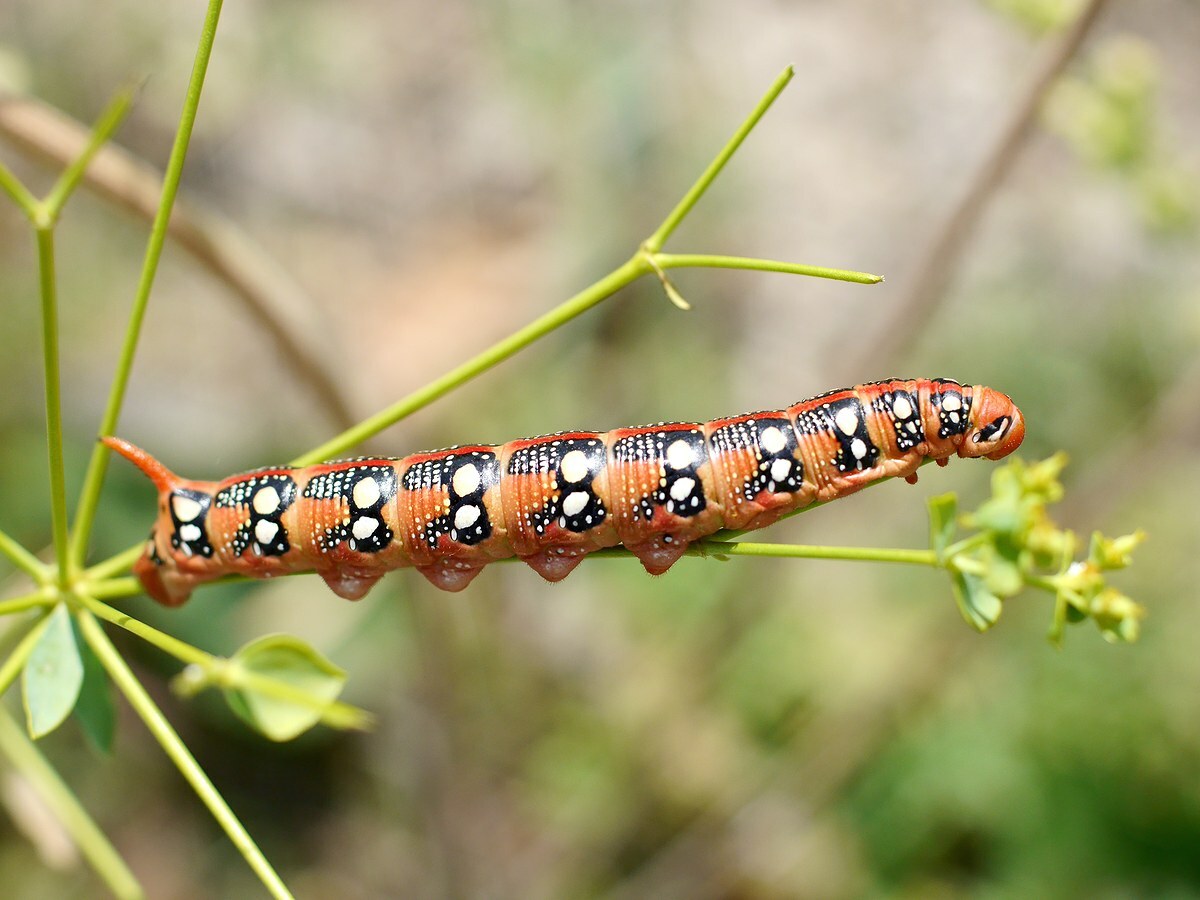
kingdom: Animalia
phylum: Arthropoda
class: Insecta
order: Lepidoptera
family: Sphingidae
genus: Hyles
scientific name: Hyles euphorbiae
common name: Spurge hawk-moth
